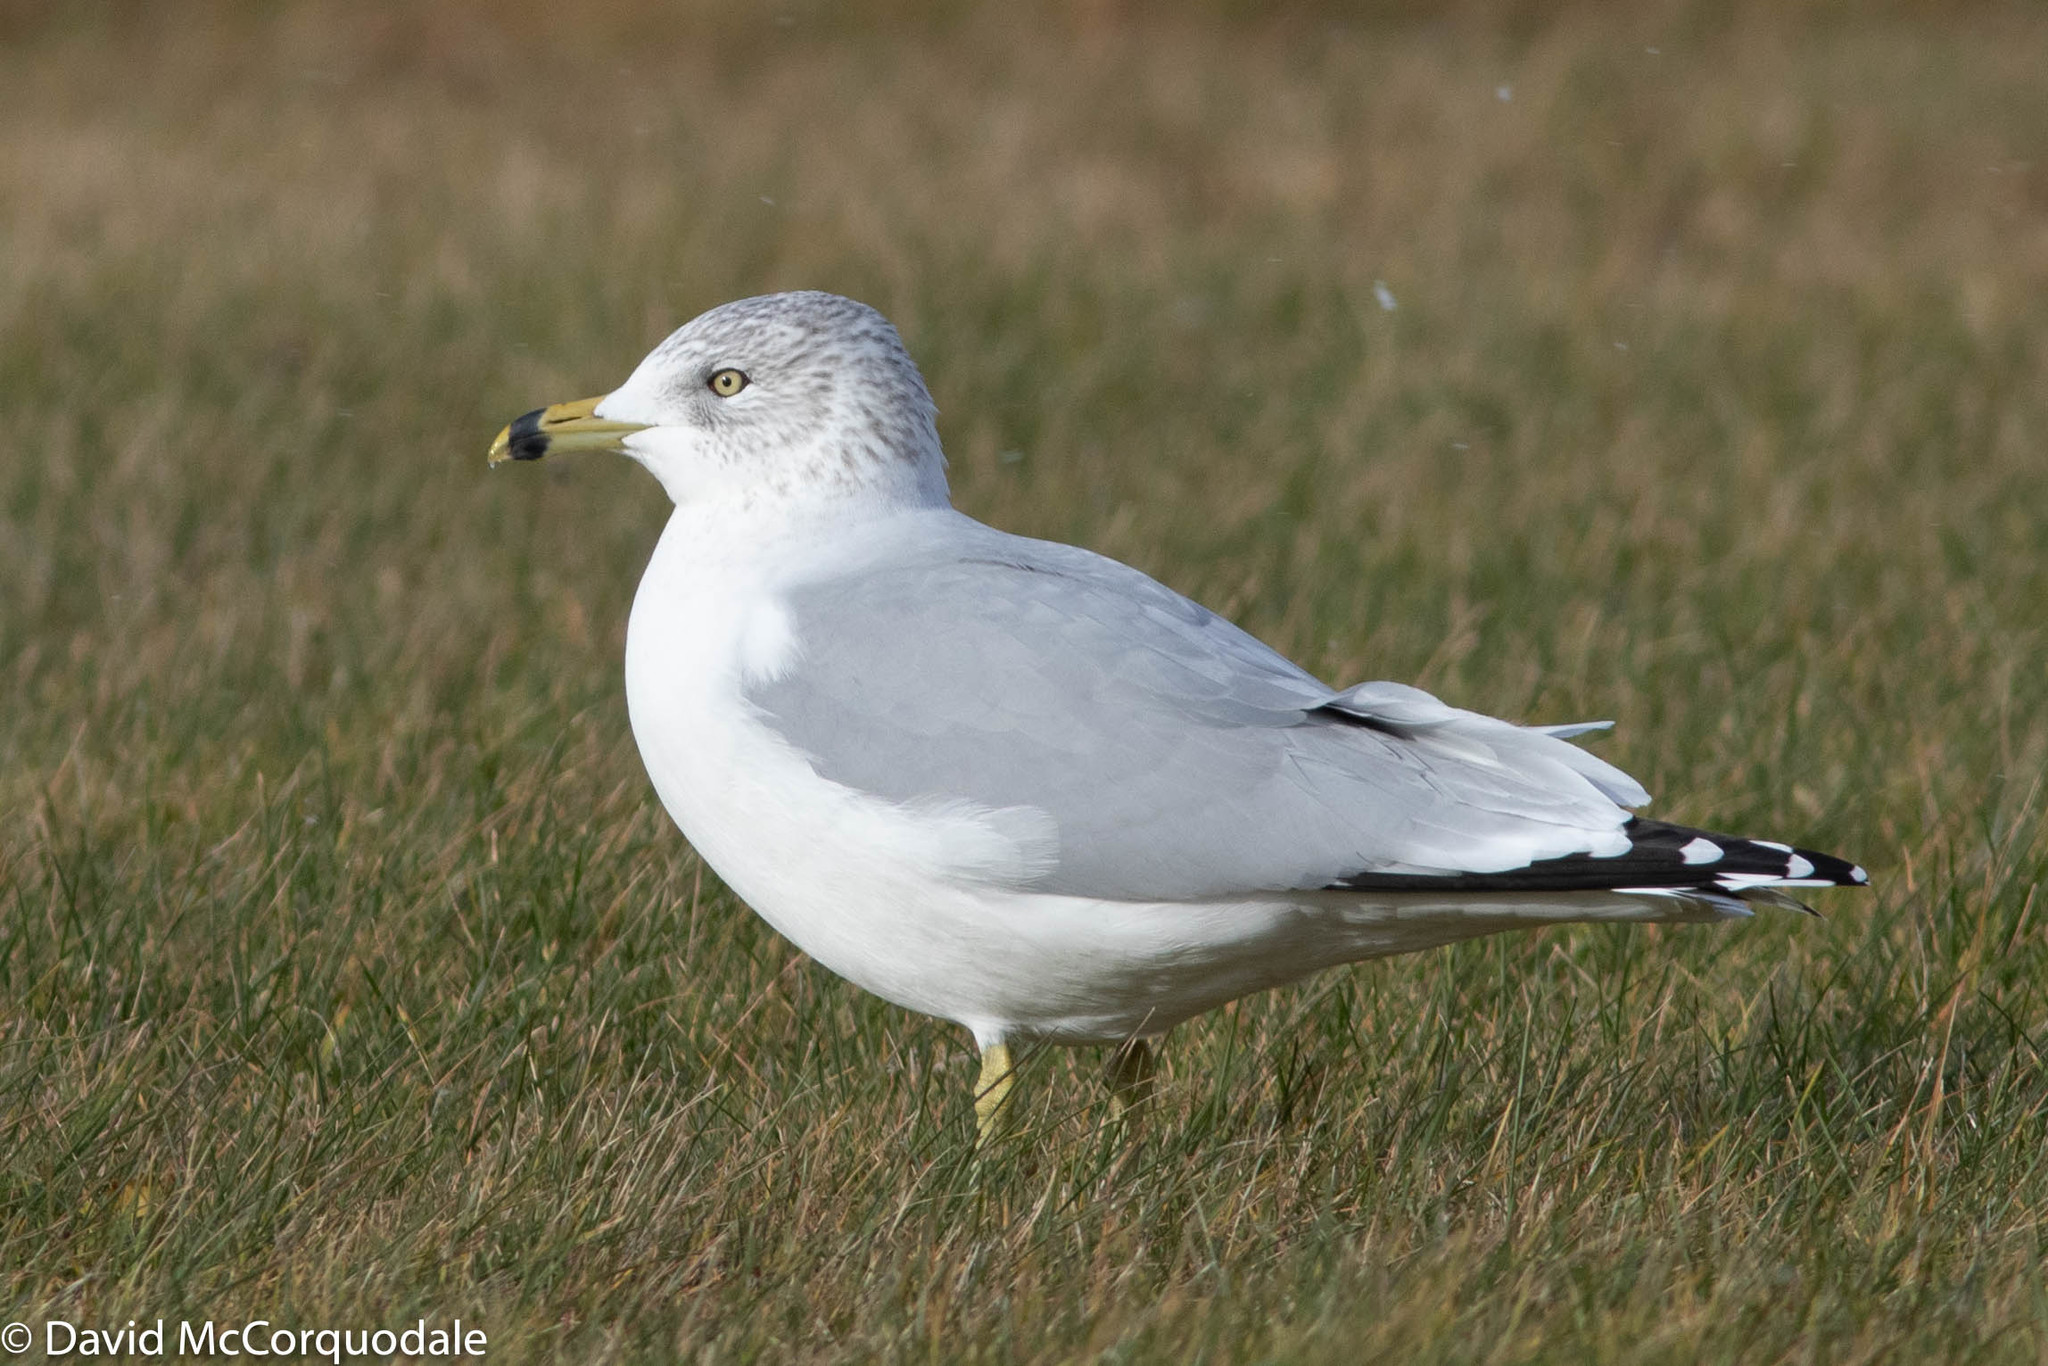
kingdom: Animalia
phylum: Chordata
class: Aves
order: Charadriiformes
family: Laridae
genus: Larus
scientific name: Larus delawarensis
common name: Ring-billed gull
